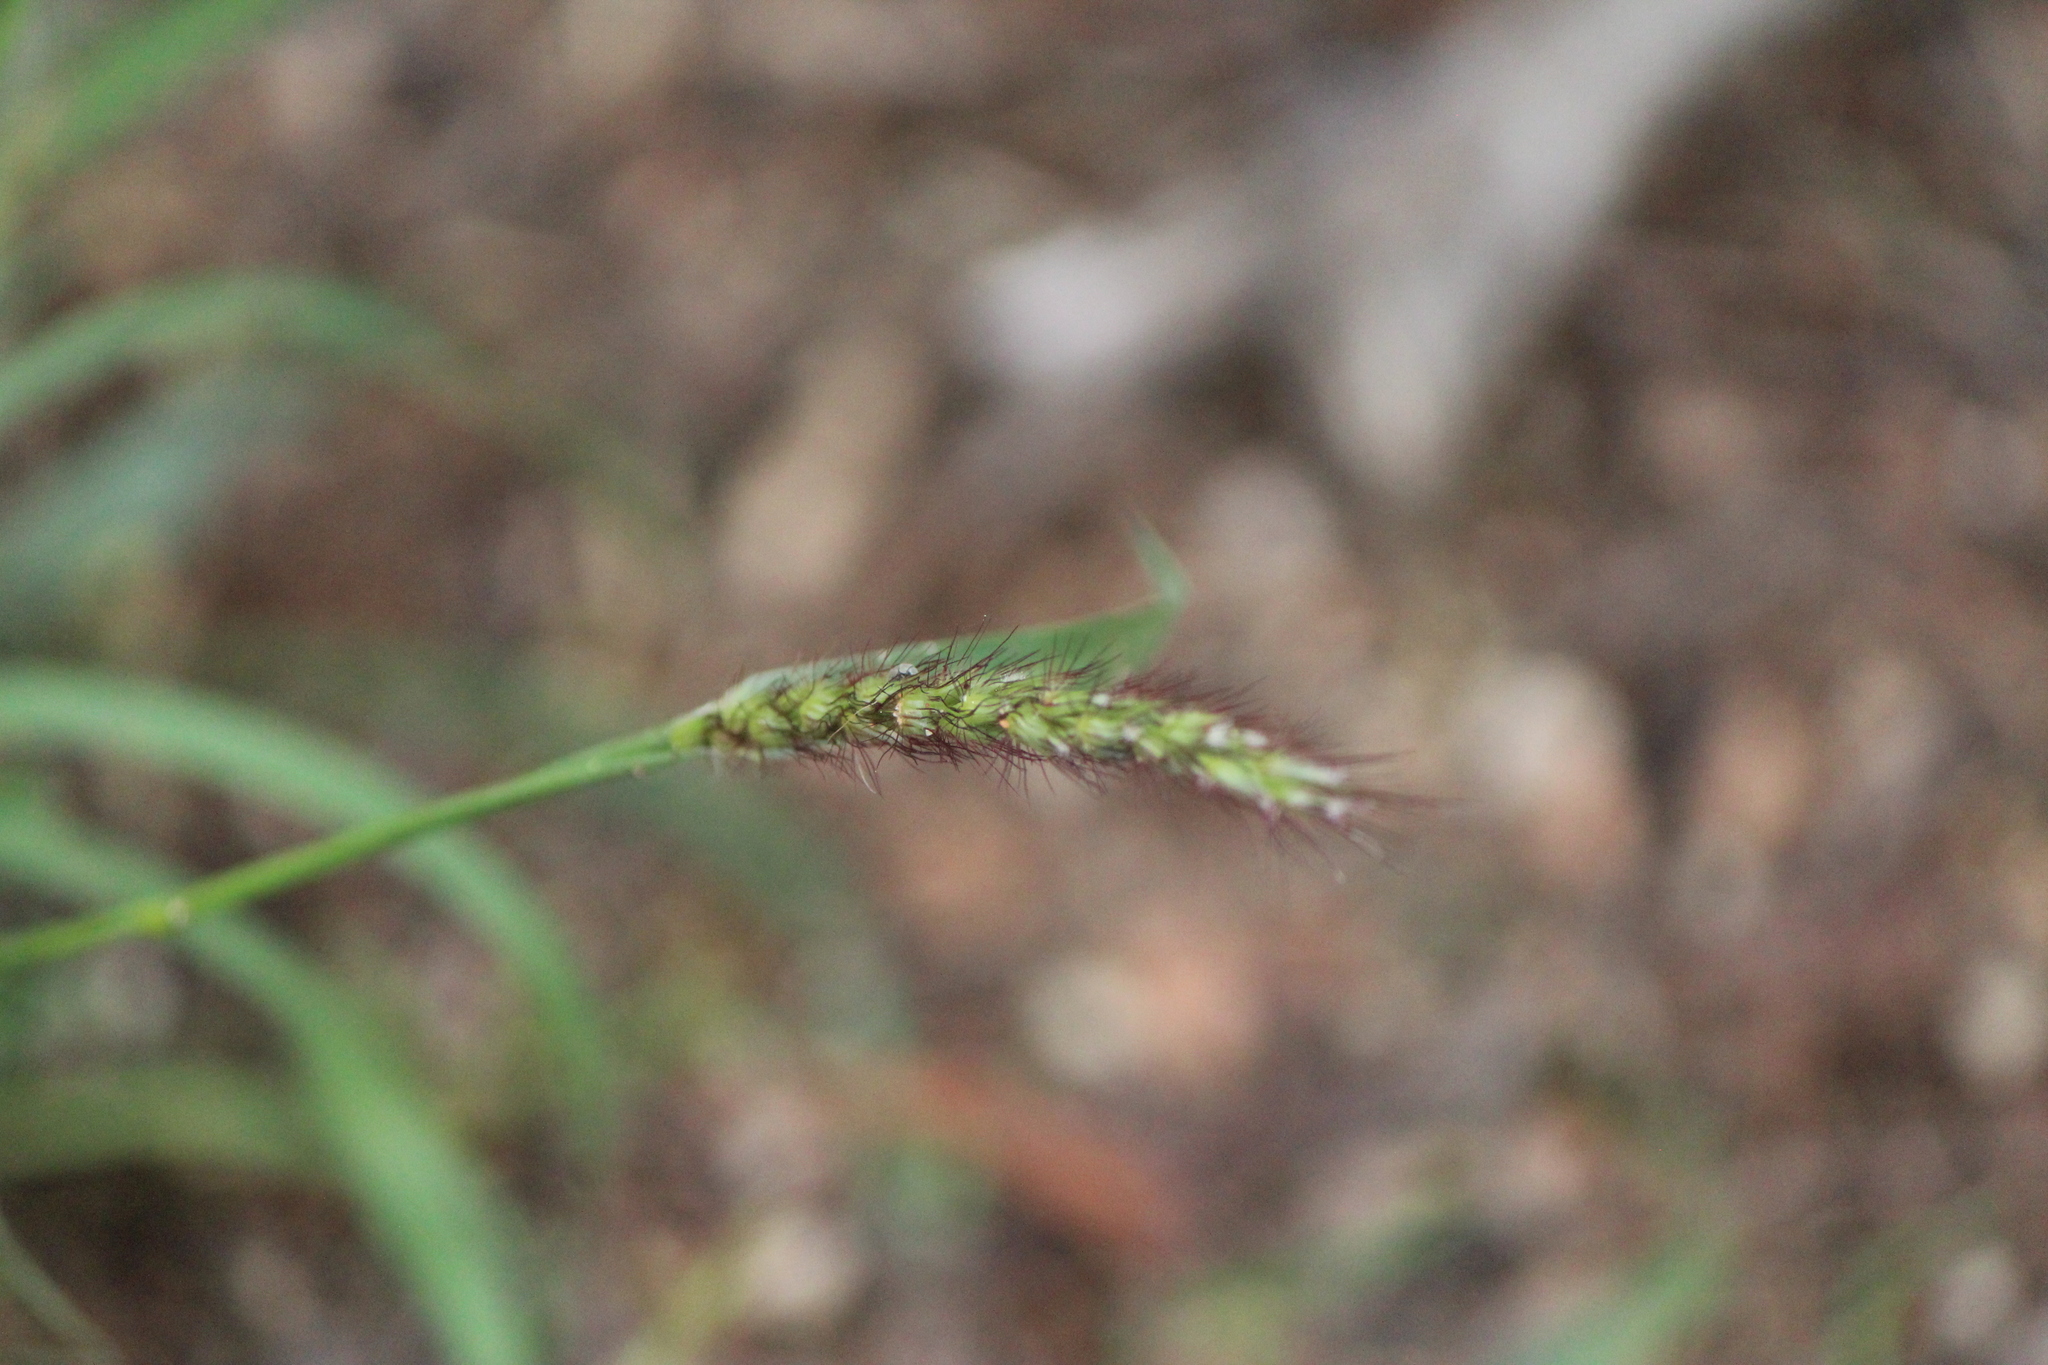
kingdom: Plantae
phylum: Tracheophyta
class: Liliopsida
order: Poales
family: Poaceae
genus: Cenchrus
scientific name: Cenchrus ciliaris
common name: Buffelgrass
